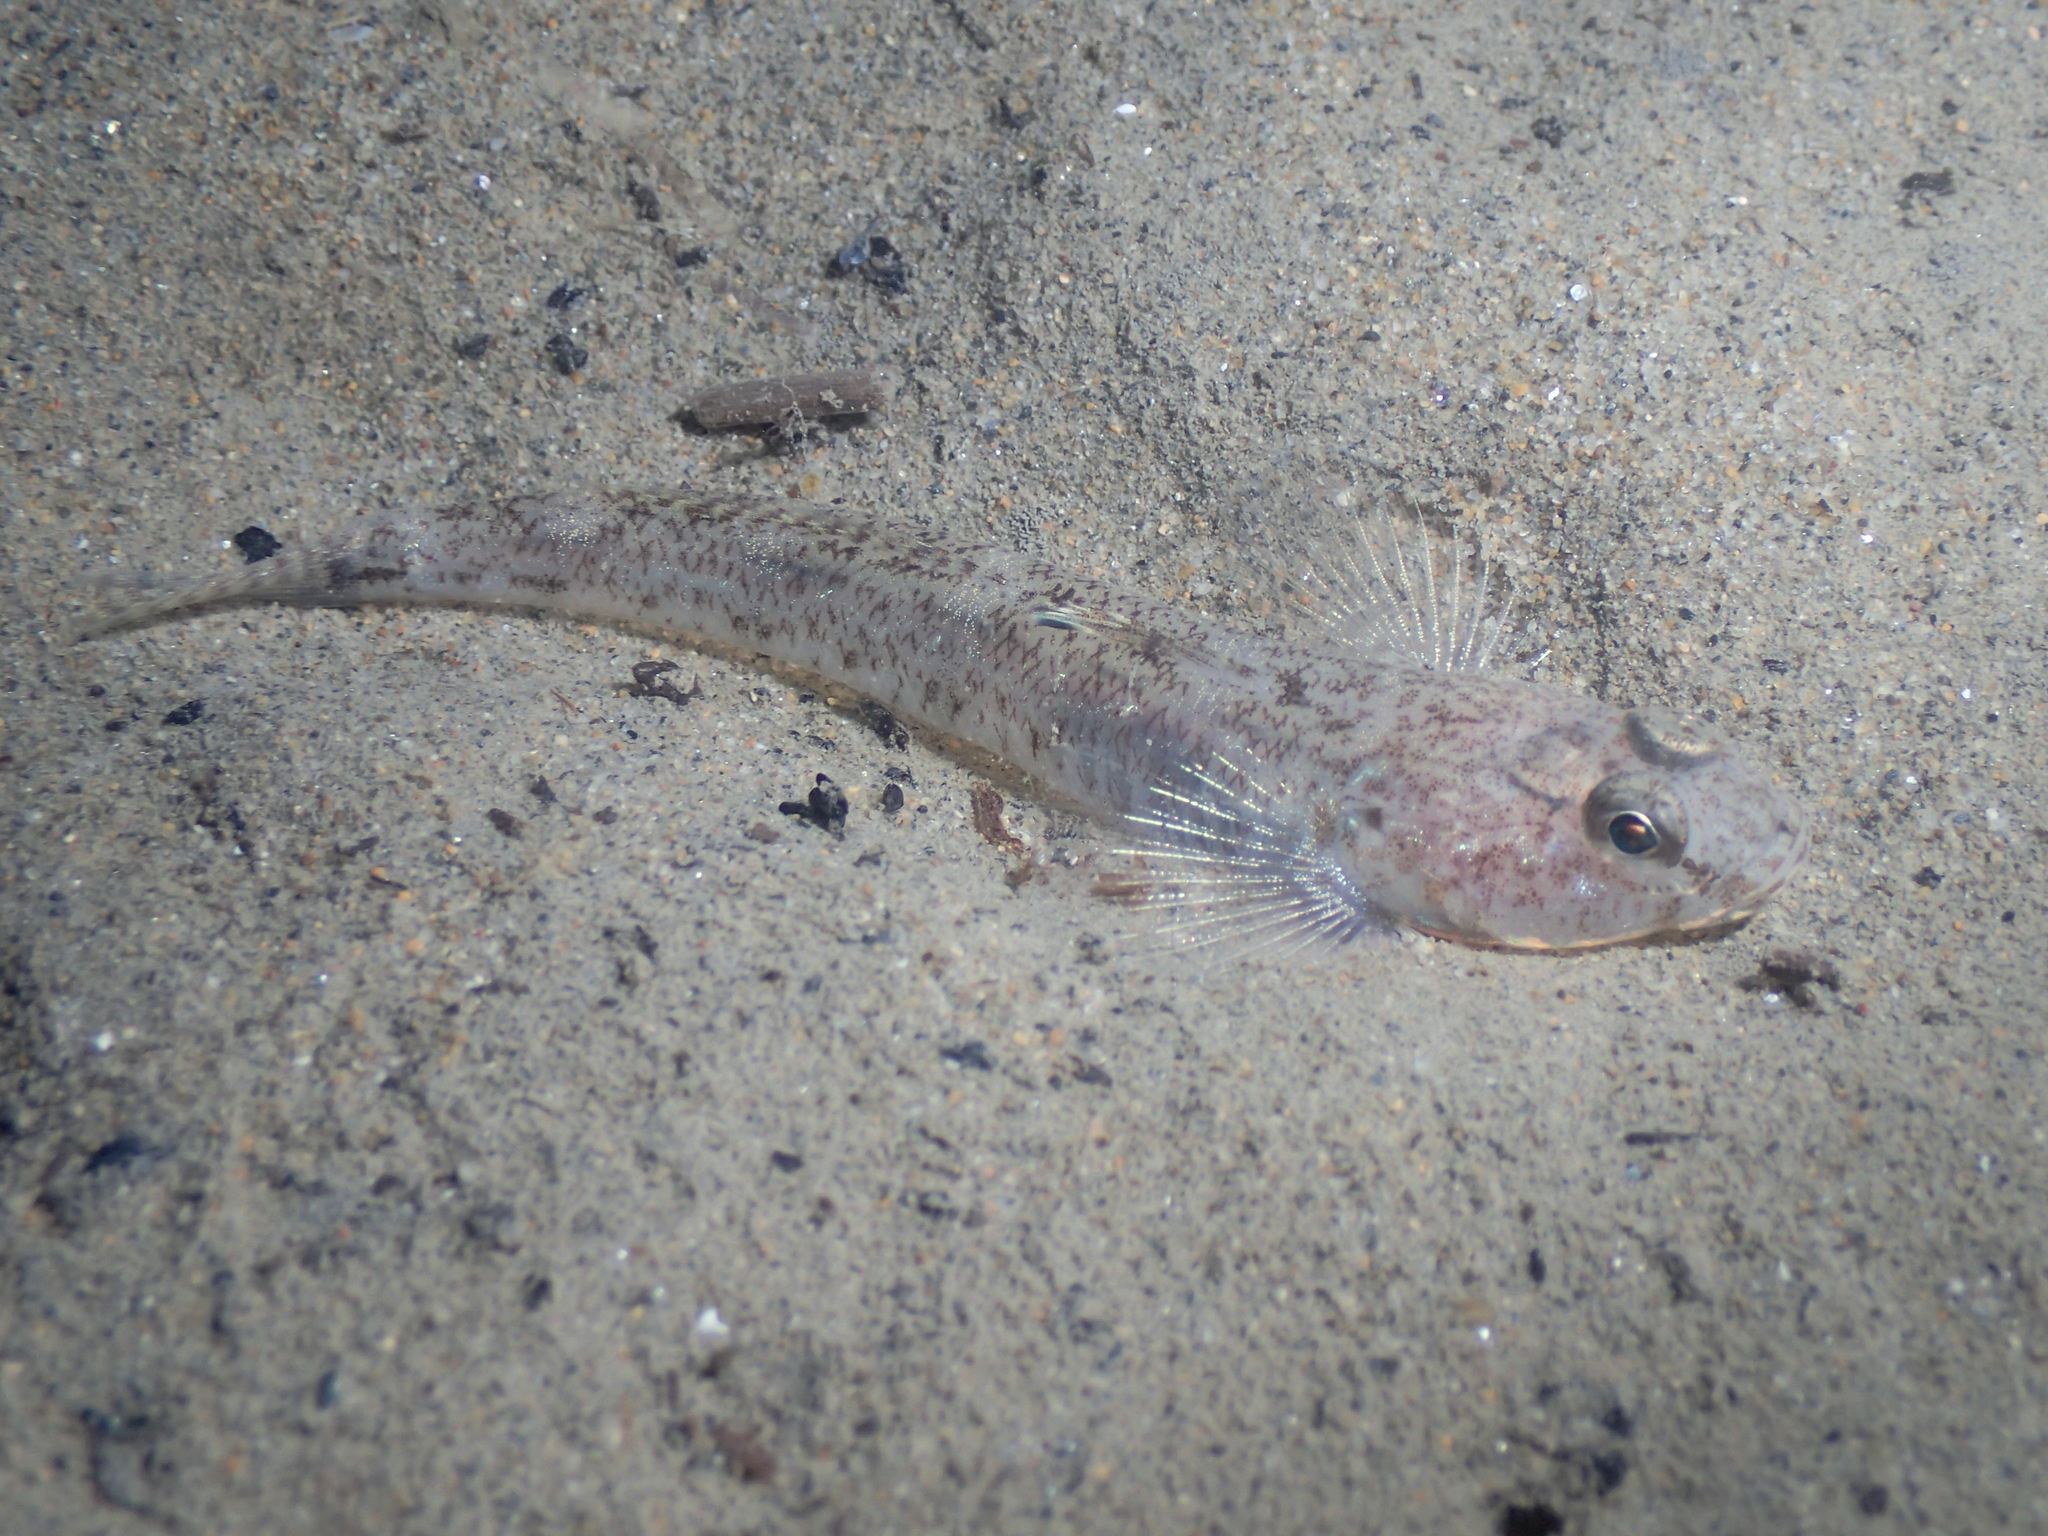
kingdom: Animalia
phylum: Chordata
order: Perciformes
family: Gobiidae
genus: Pomatoschistus
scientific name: Pomatoschistus minutus
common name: Sand goby
